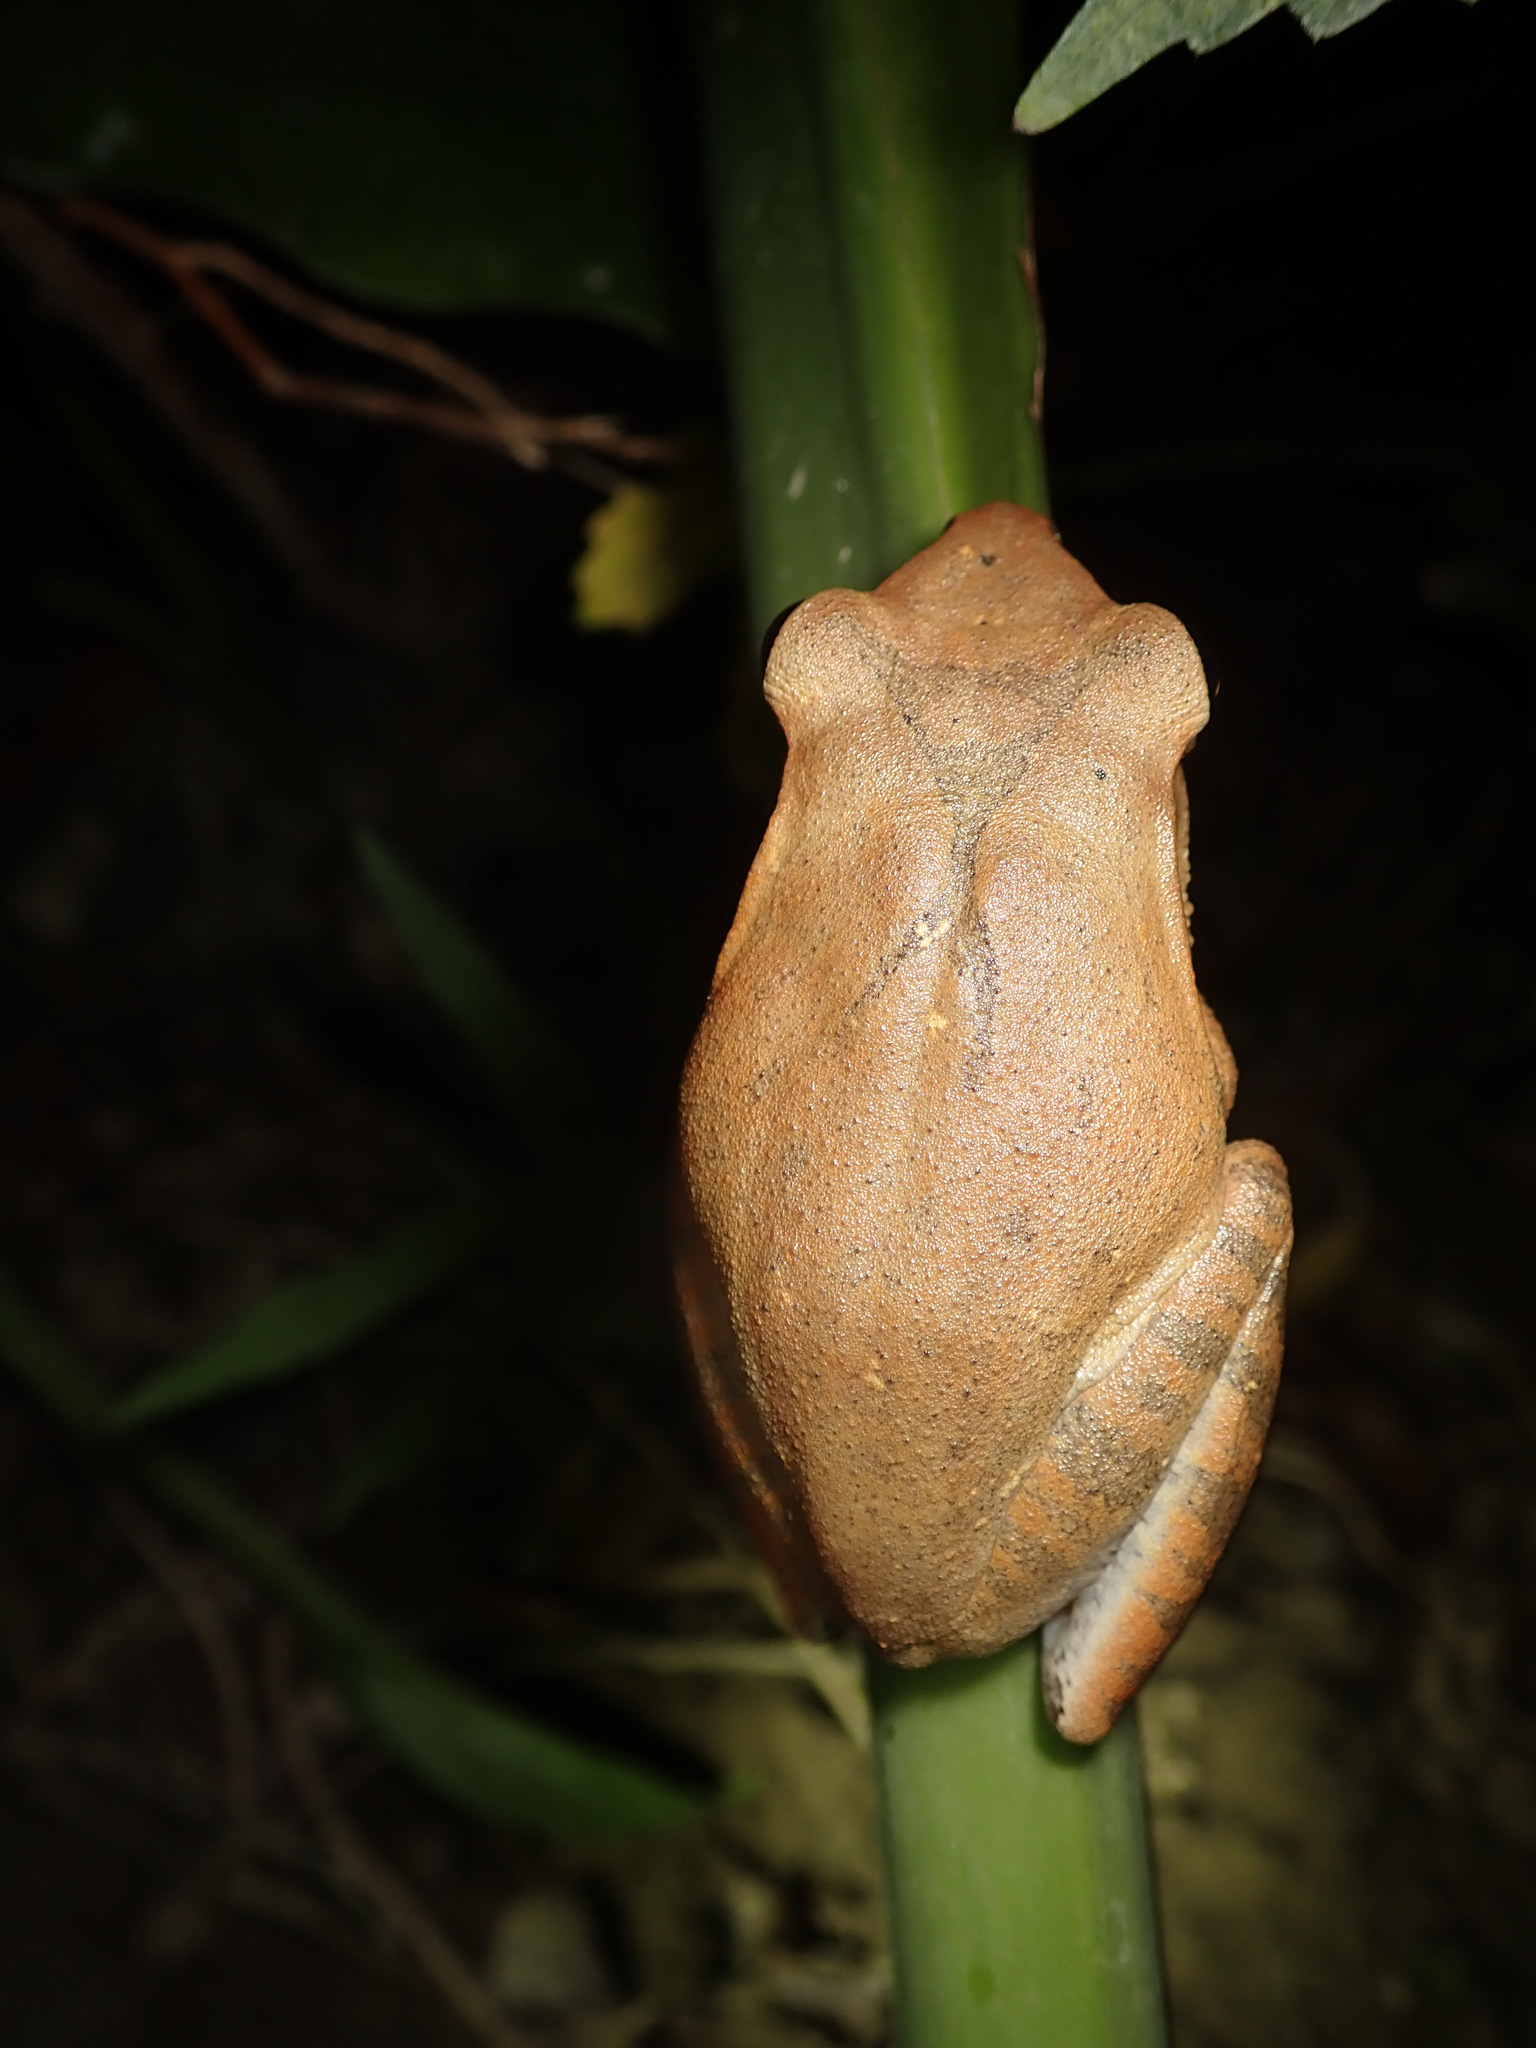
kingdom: Animalia
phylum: Chordata
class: Amphibia
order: Anura
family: Rhacophoridae
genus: Polypedates
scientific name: Polypedates megacephalus
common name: Hong kong whipping frog
